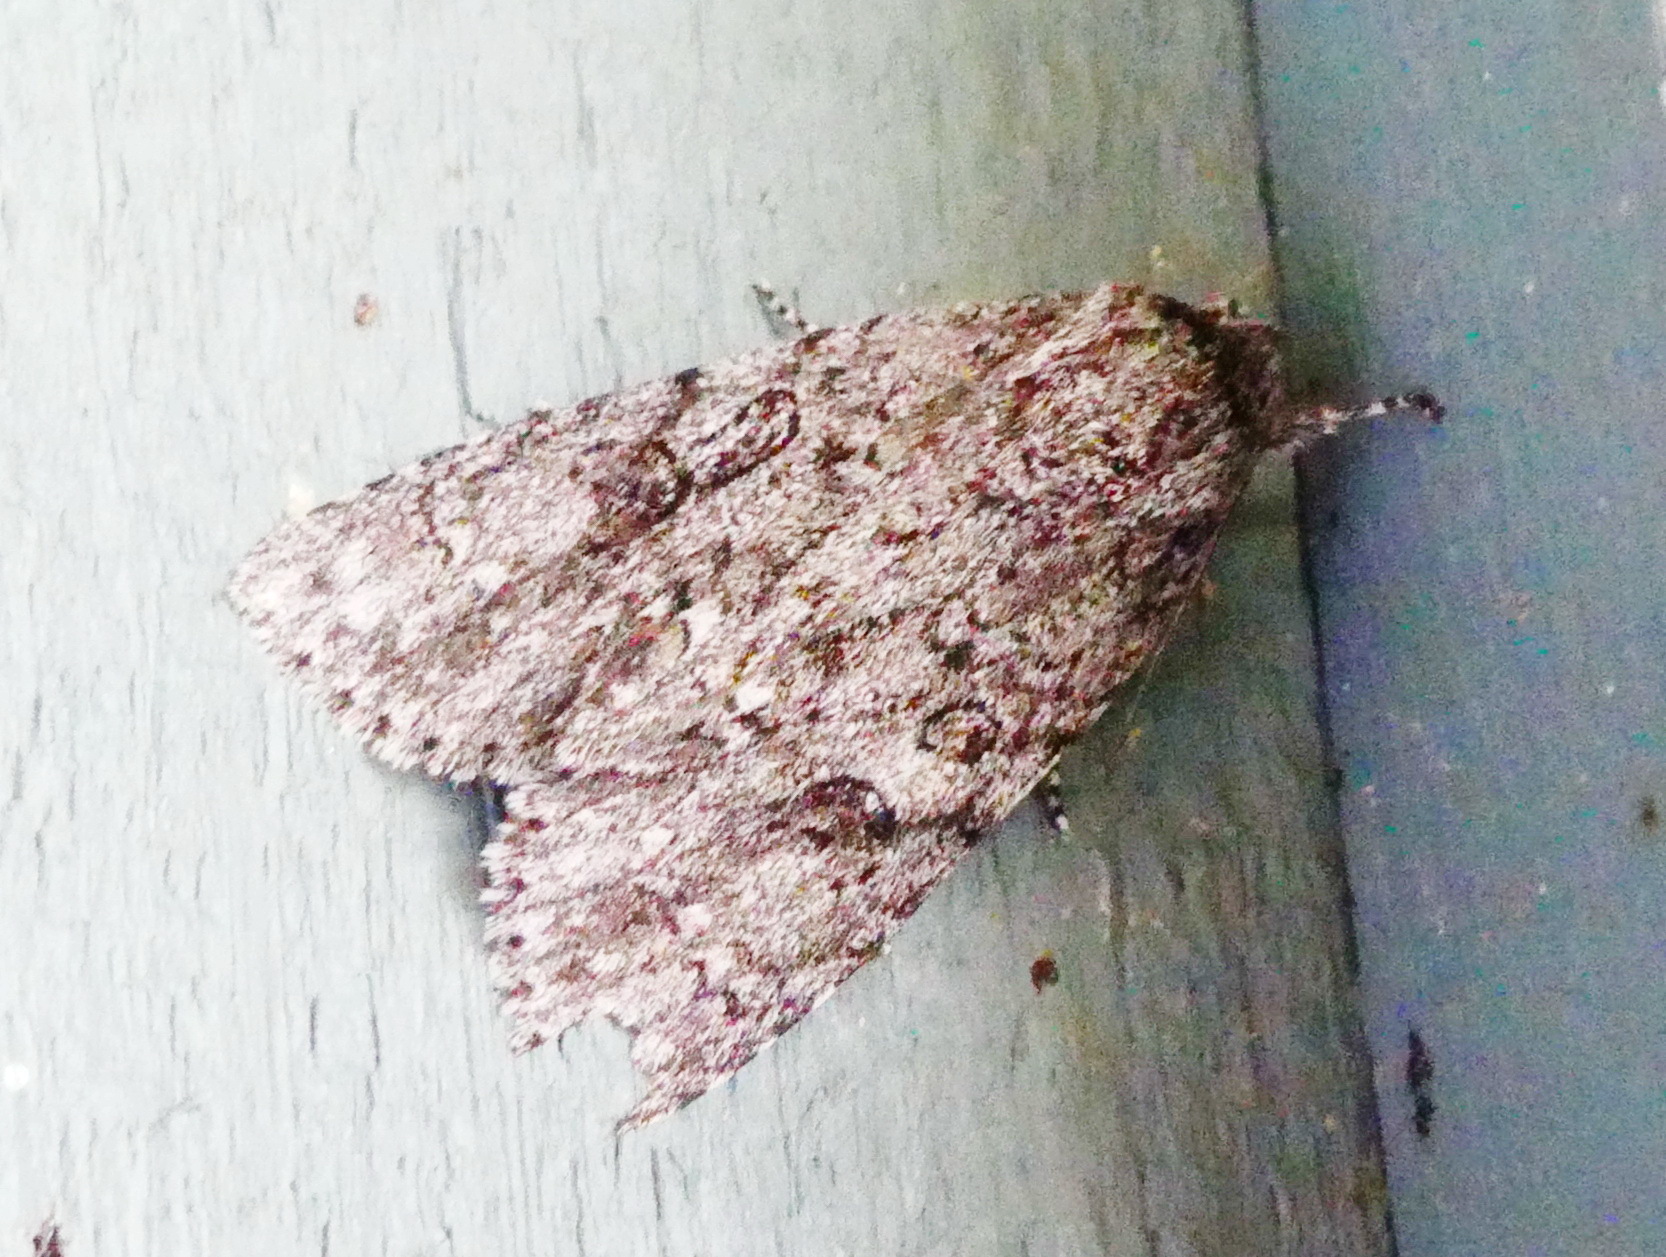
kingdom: Animalia
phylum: Arthropoda
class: Insecta
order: Lepidoptera
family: Noctuidae
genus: Acronicta
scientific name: Acronicta impleta
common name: Powdered dagger
